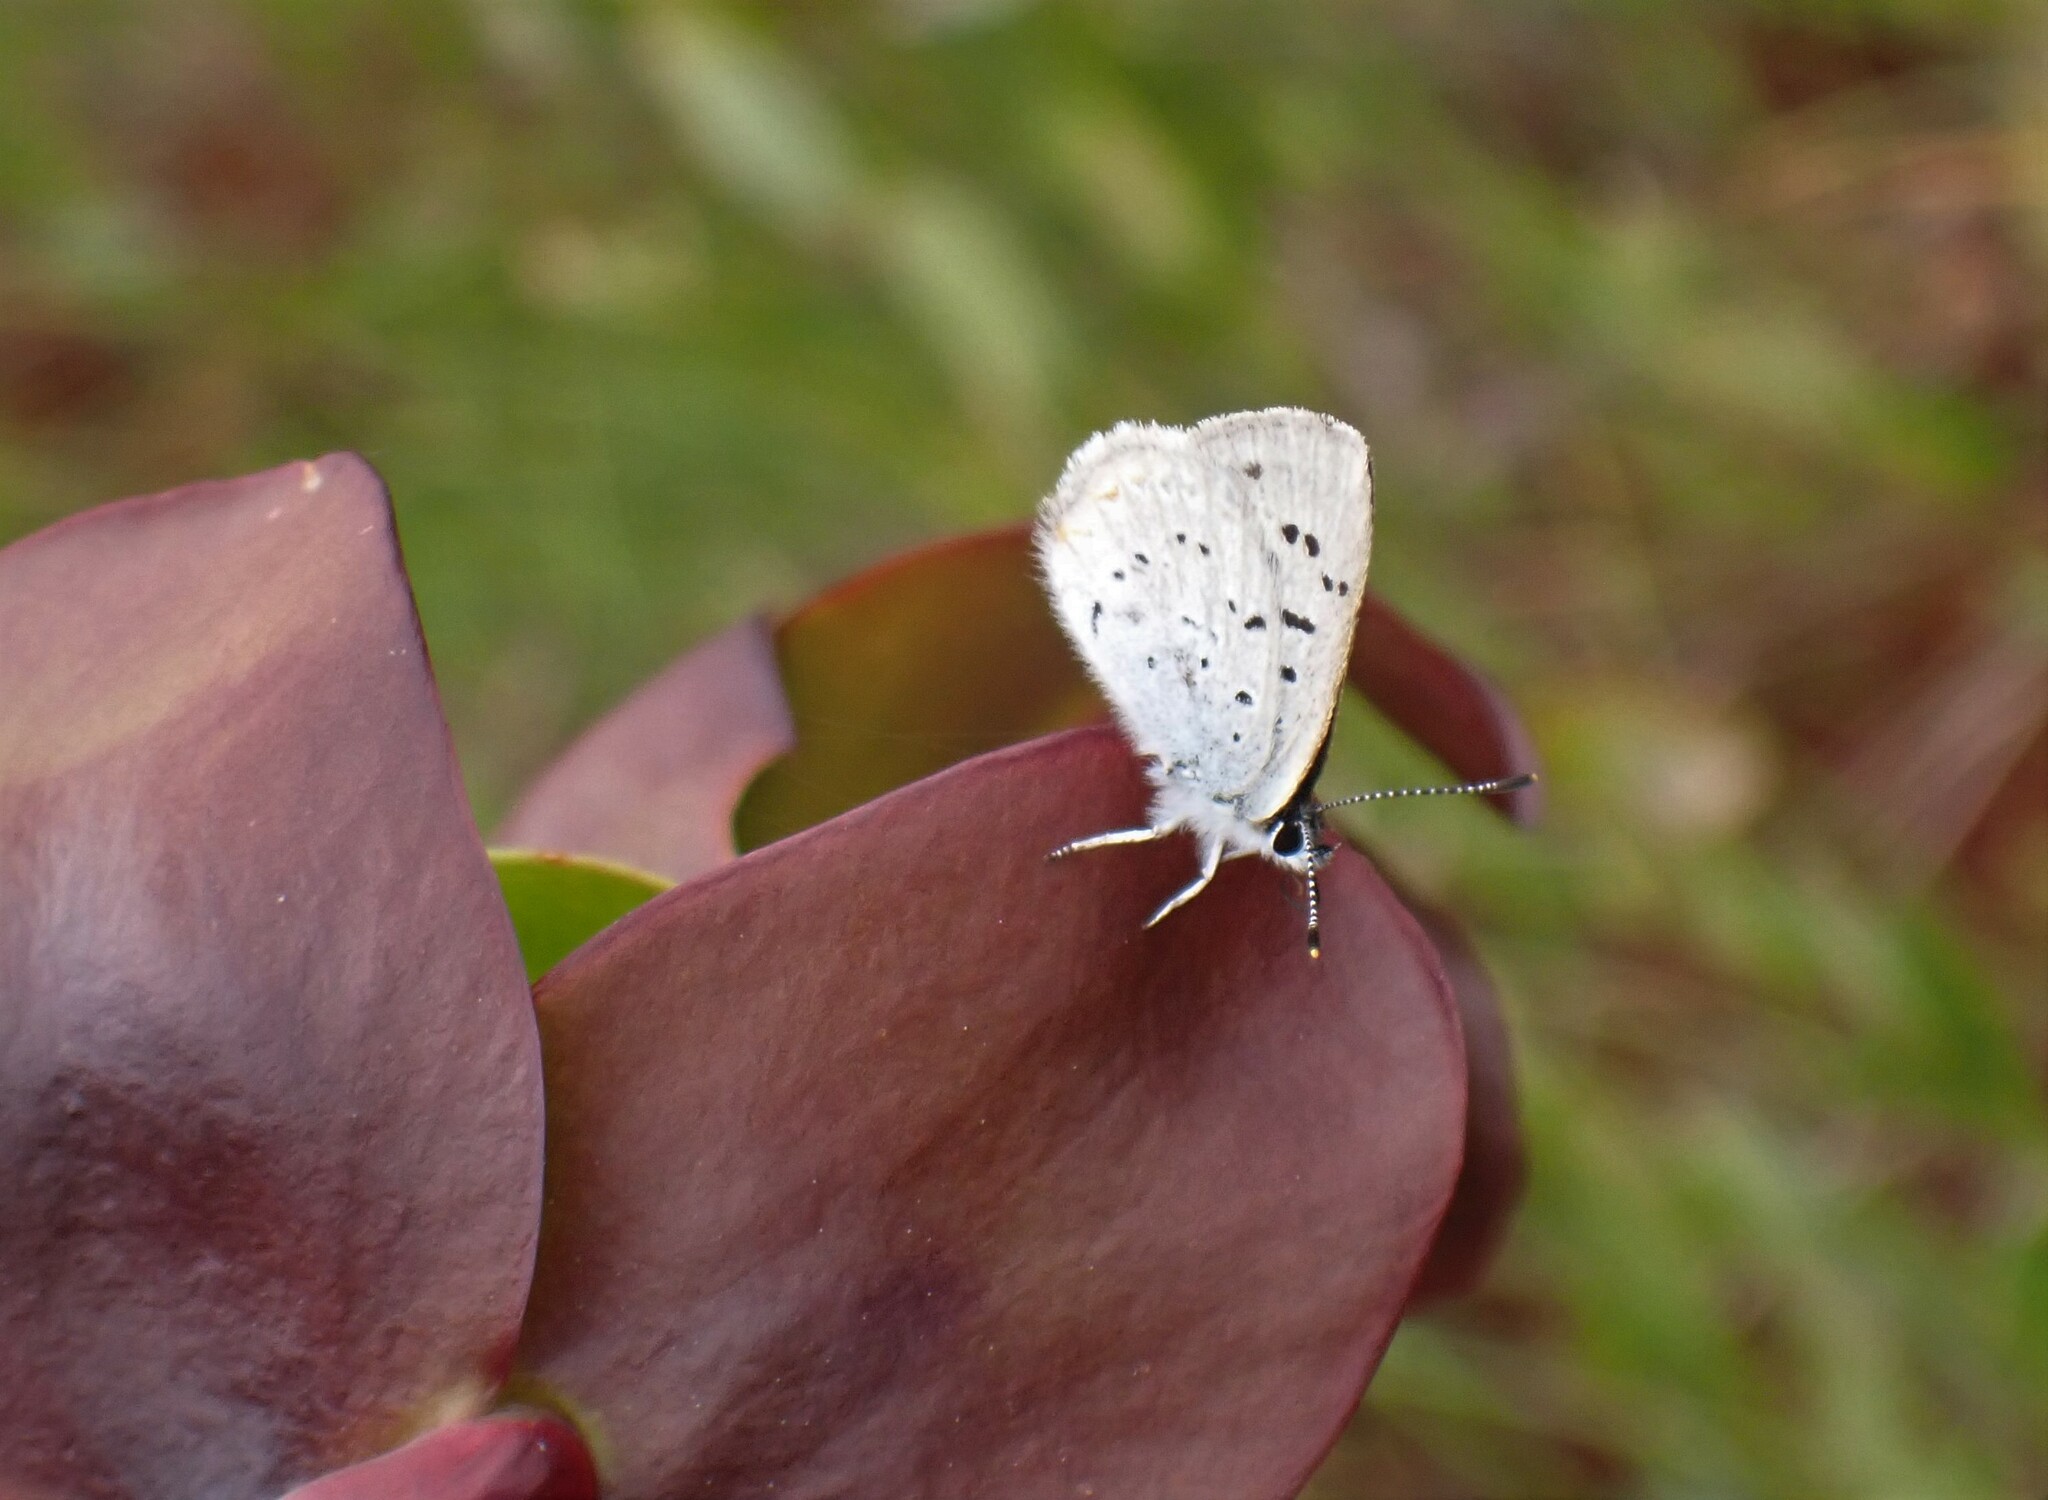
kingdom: Animalia
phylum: Arthropoda
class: Insecta
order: Lepidoptera
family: Lycaenidae
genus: Tharsalea
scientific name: Tharsalea epixanthe
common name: Bog copper
